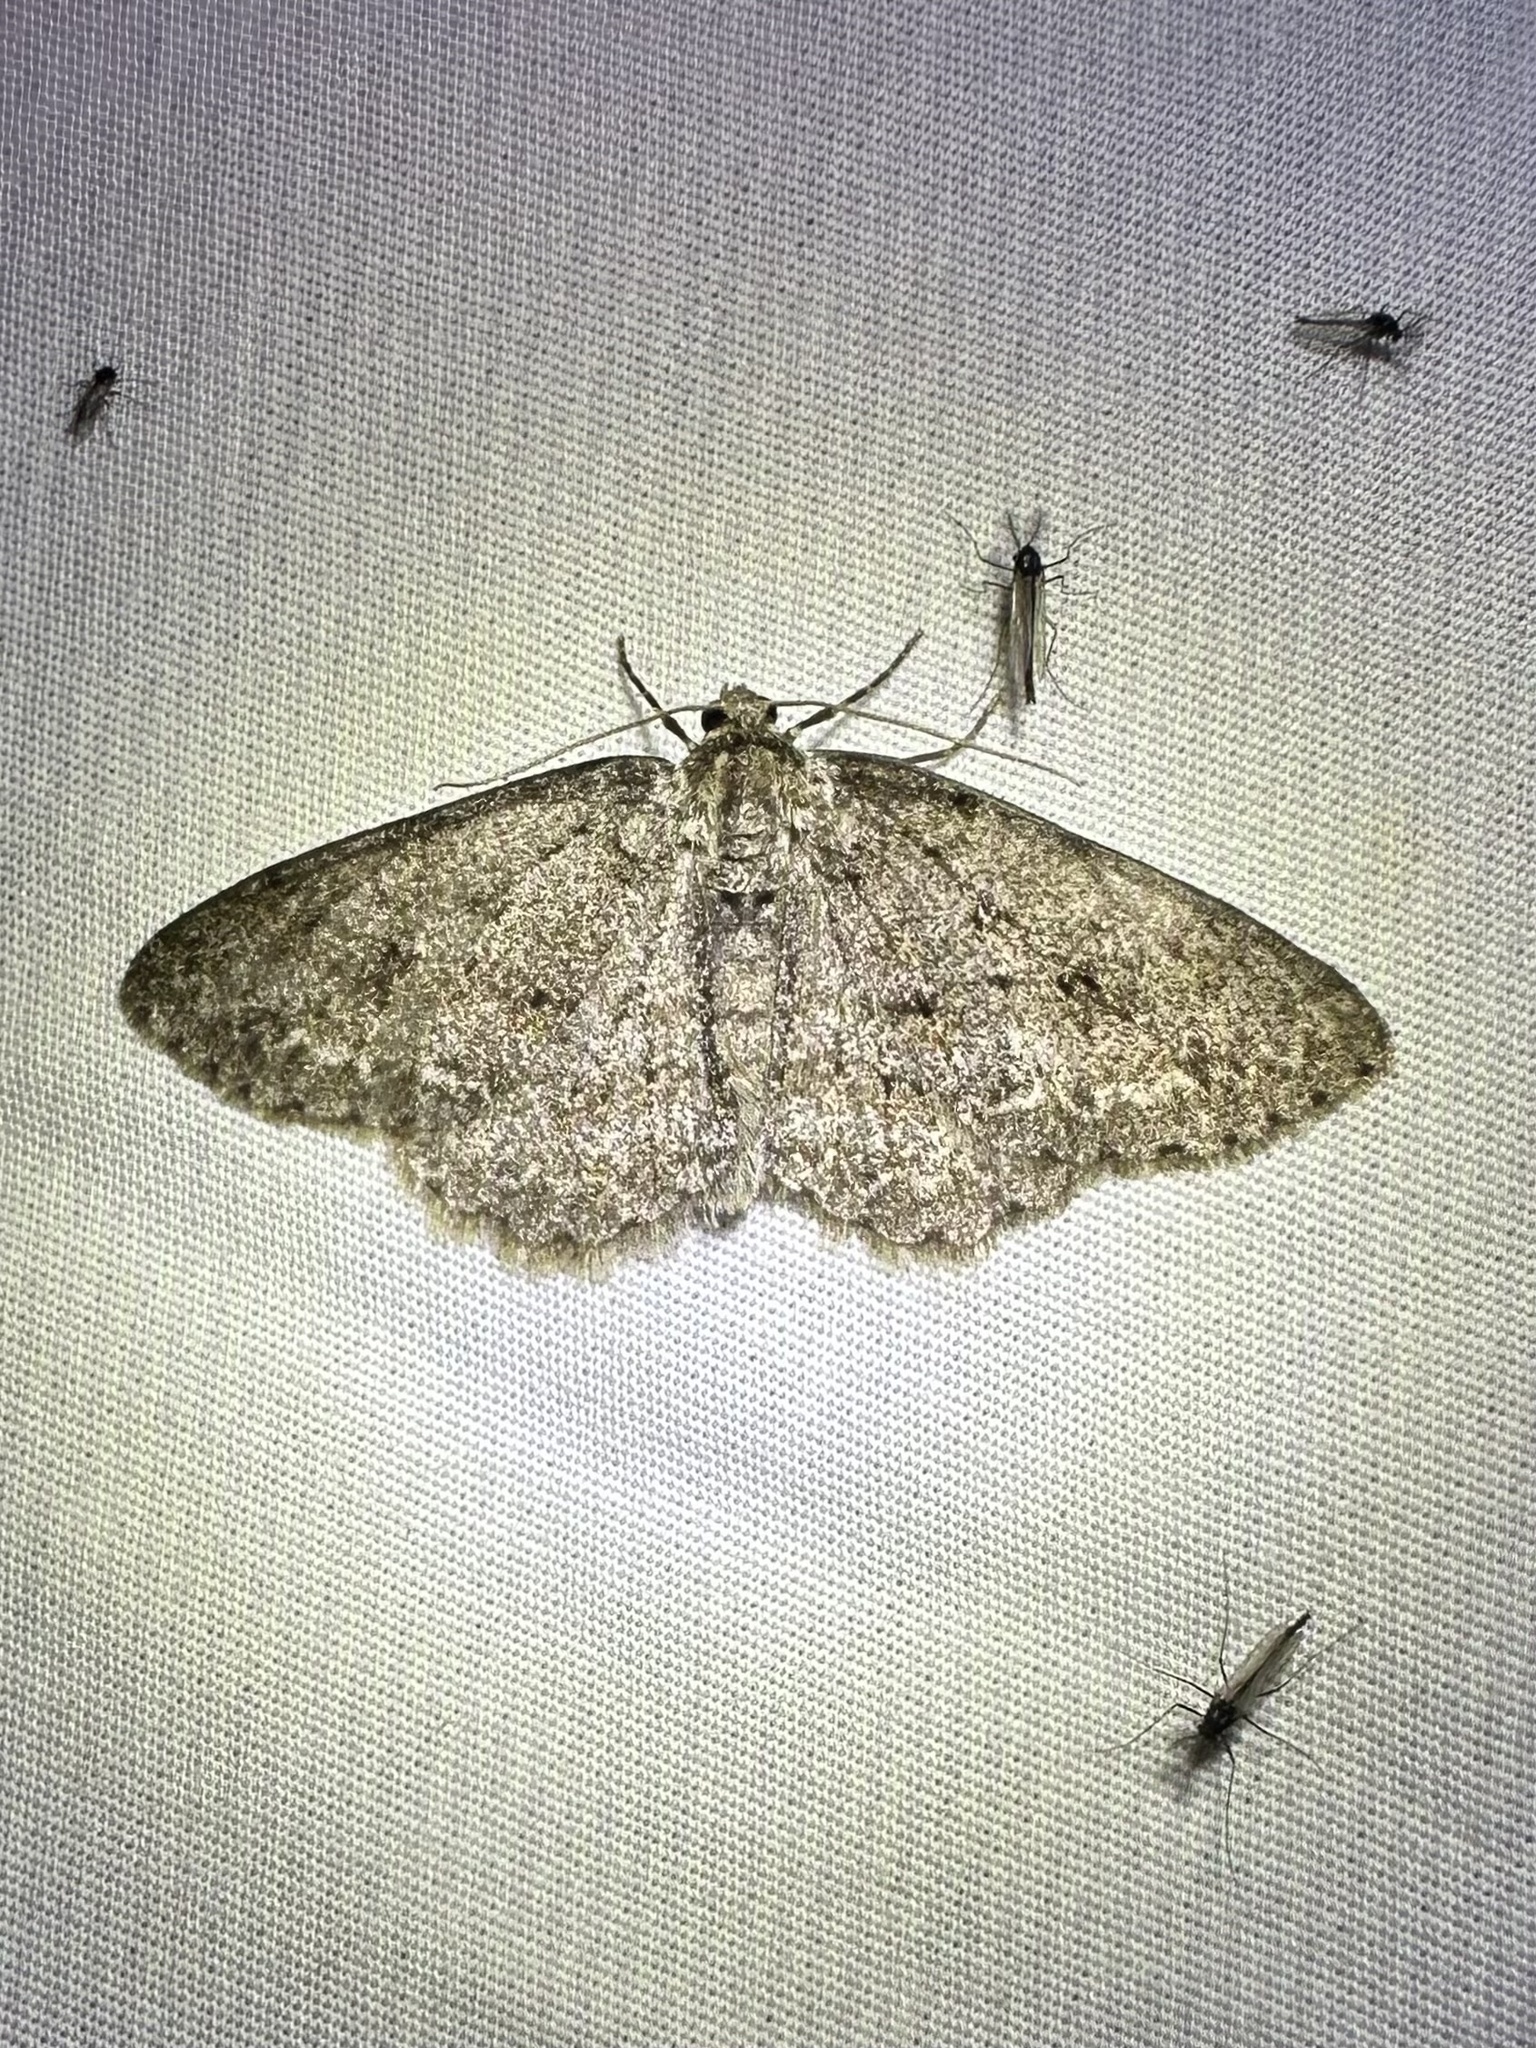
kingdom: Animalia
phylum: Arthropoda
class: Insecta
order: Lepidoptera
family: Geometridae
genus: Ectropis
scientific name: Ectropis crepuscularia
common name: Engrailed
